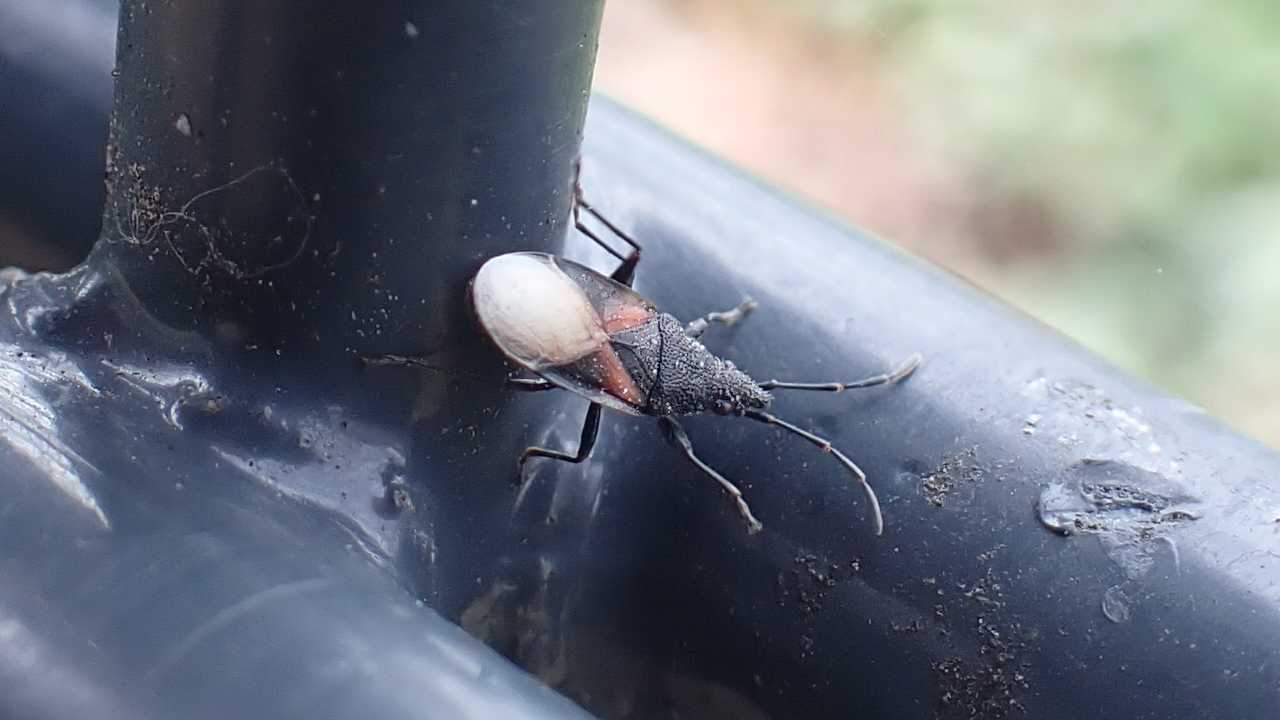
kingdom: Animalia
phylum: Arthropoda
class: Insecta
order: Hemiptera
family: Oxycarenidae
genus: Oxycarenus
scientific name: Oxycarenus lavaterae
